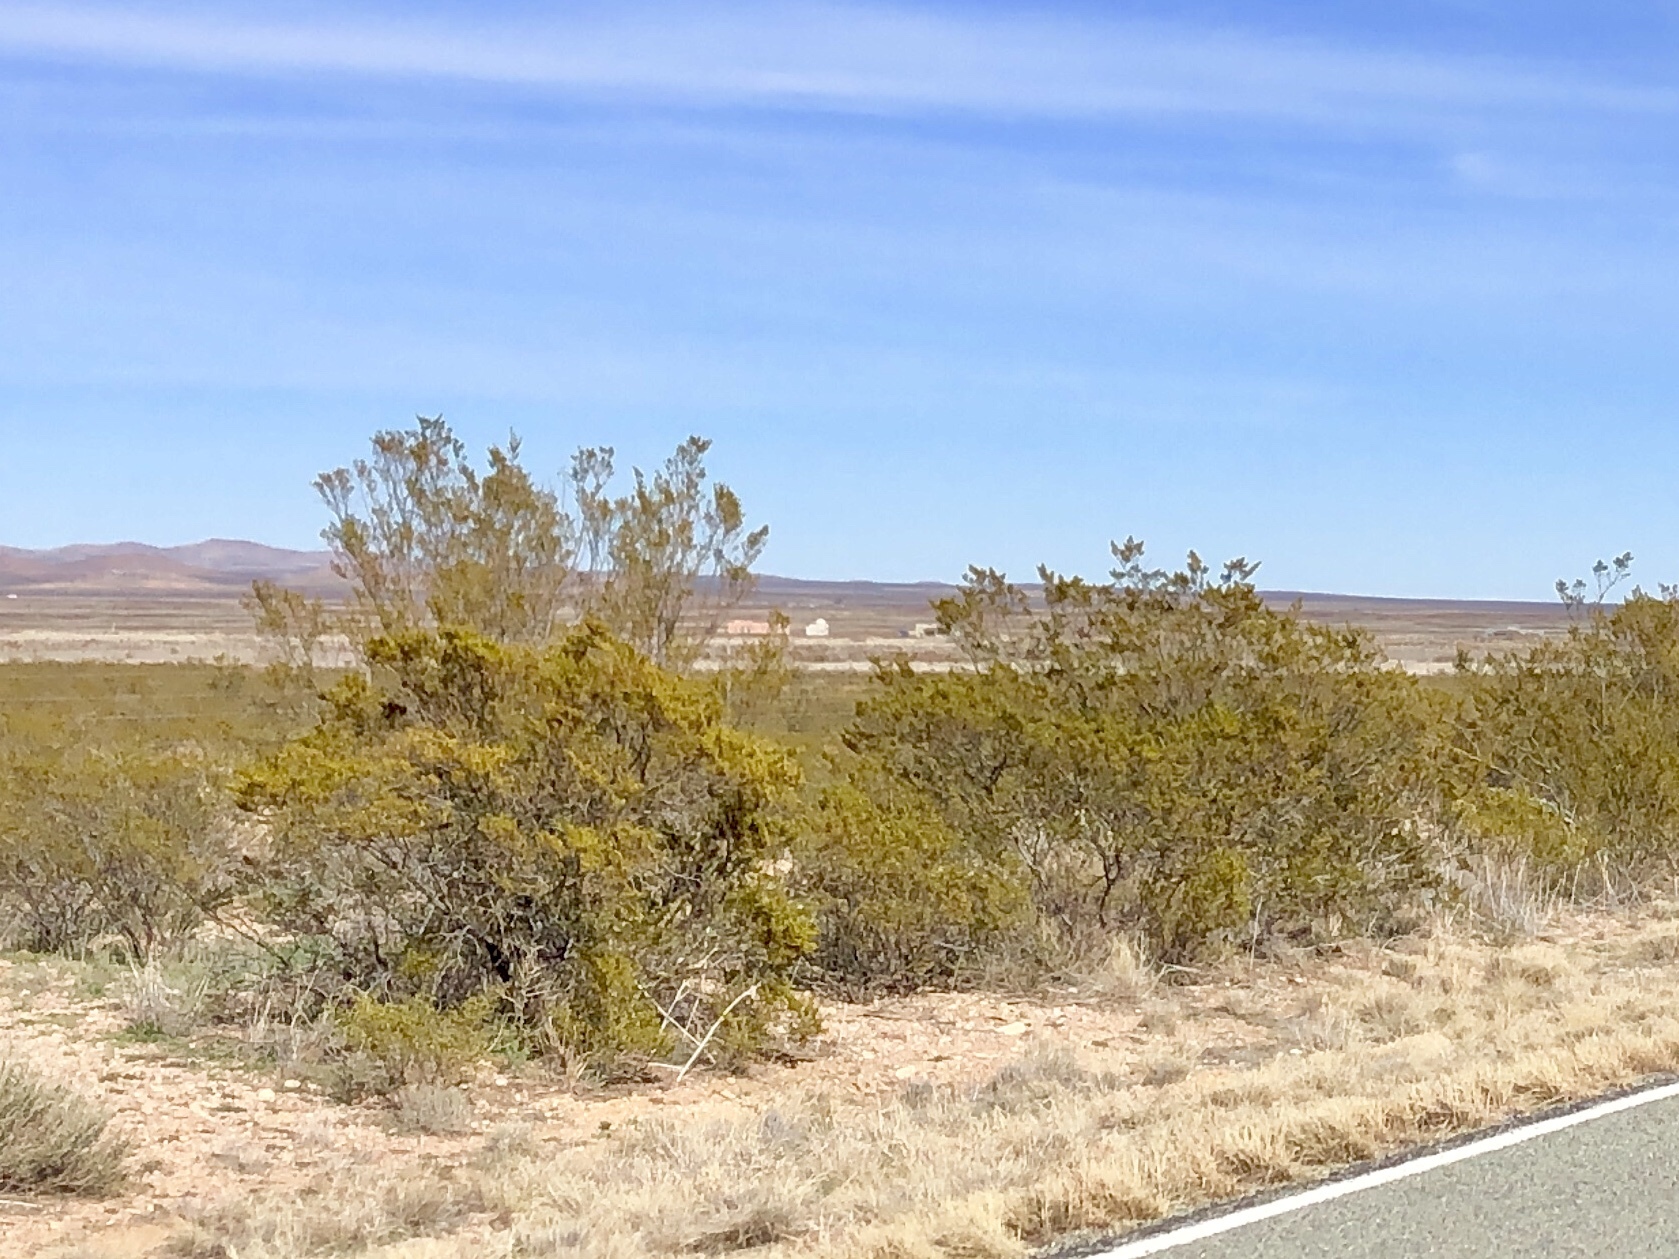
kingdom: Plantae
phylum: Tracheophyta
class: Magnoliopsida
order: Zygophyllales
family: Zygophyllaceae
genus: Larrea
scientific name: Larrea tridentata
